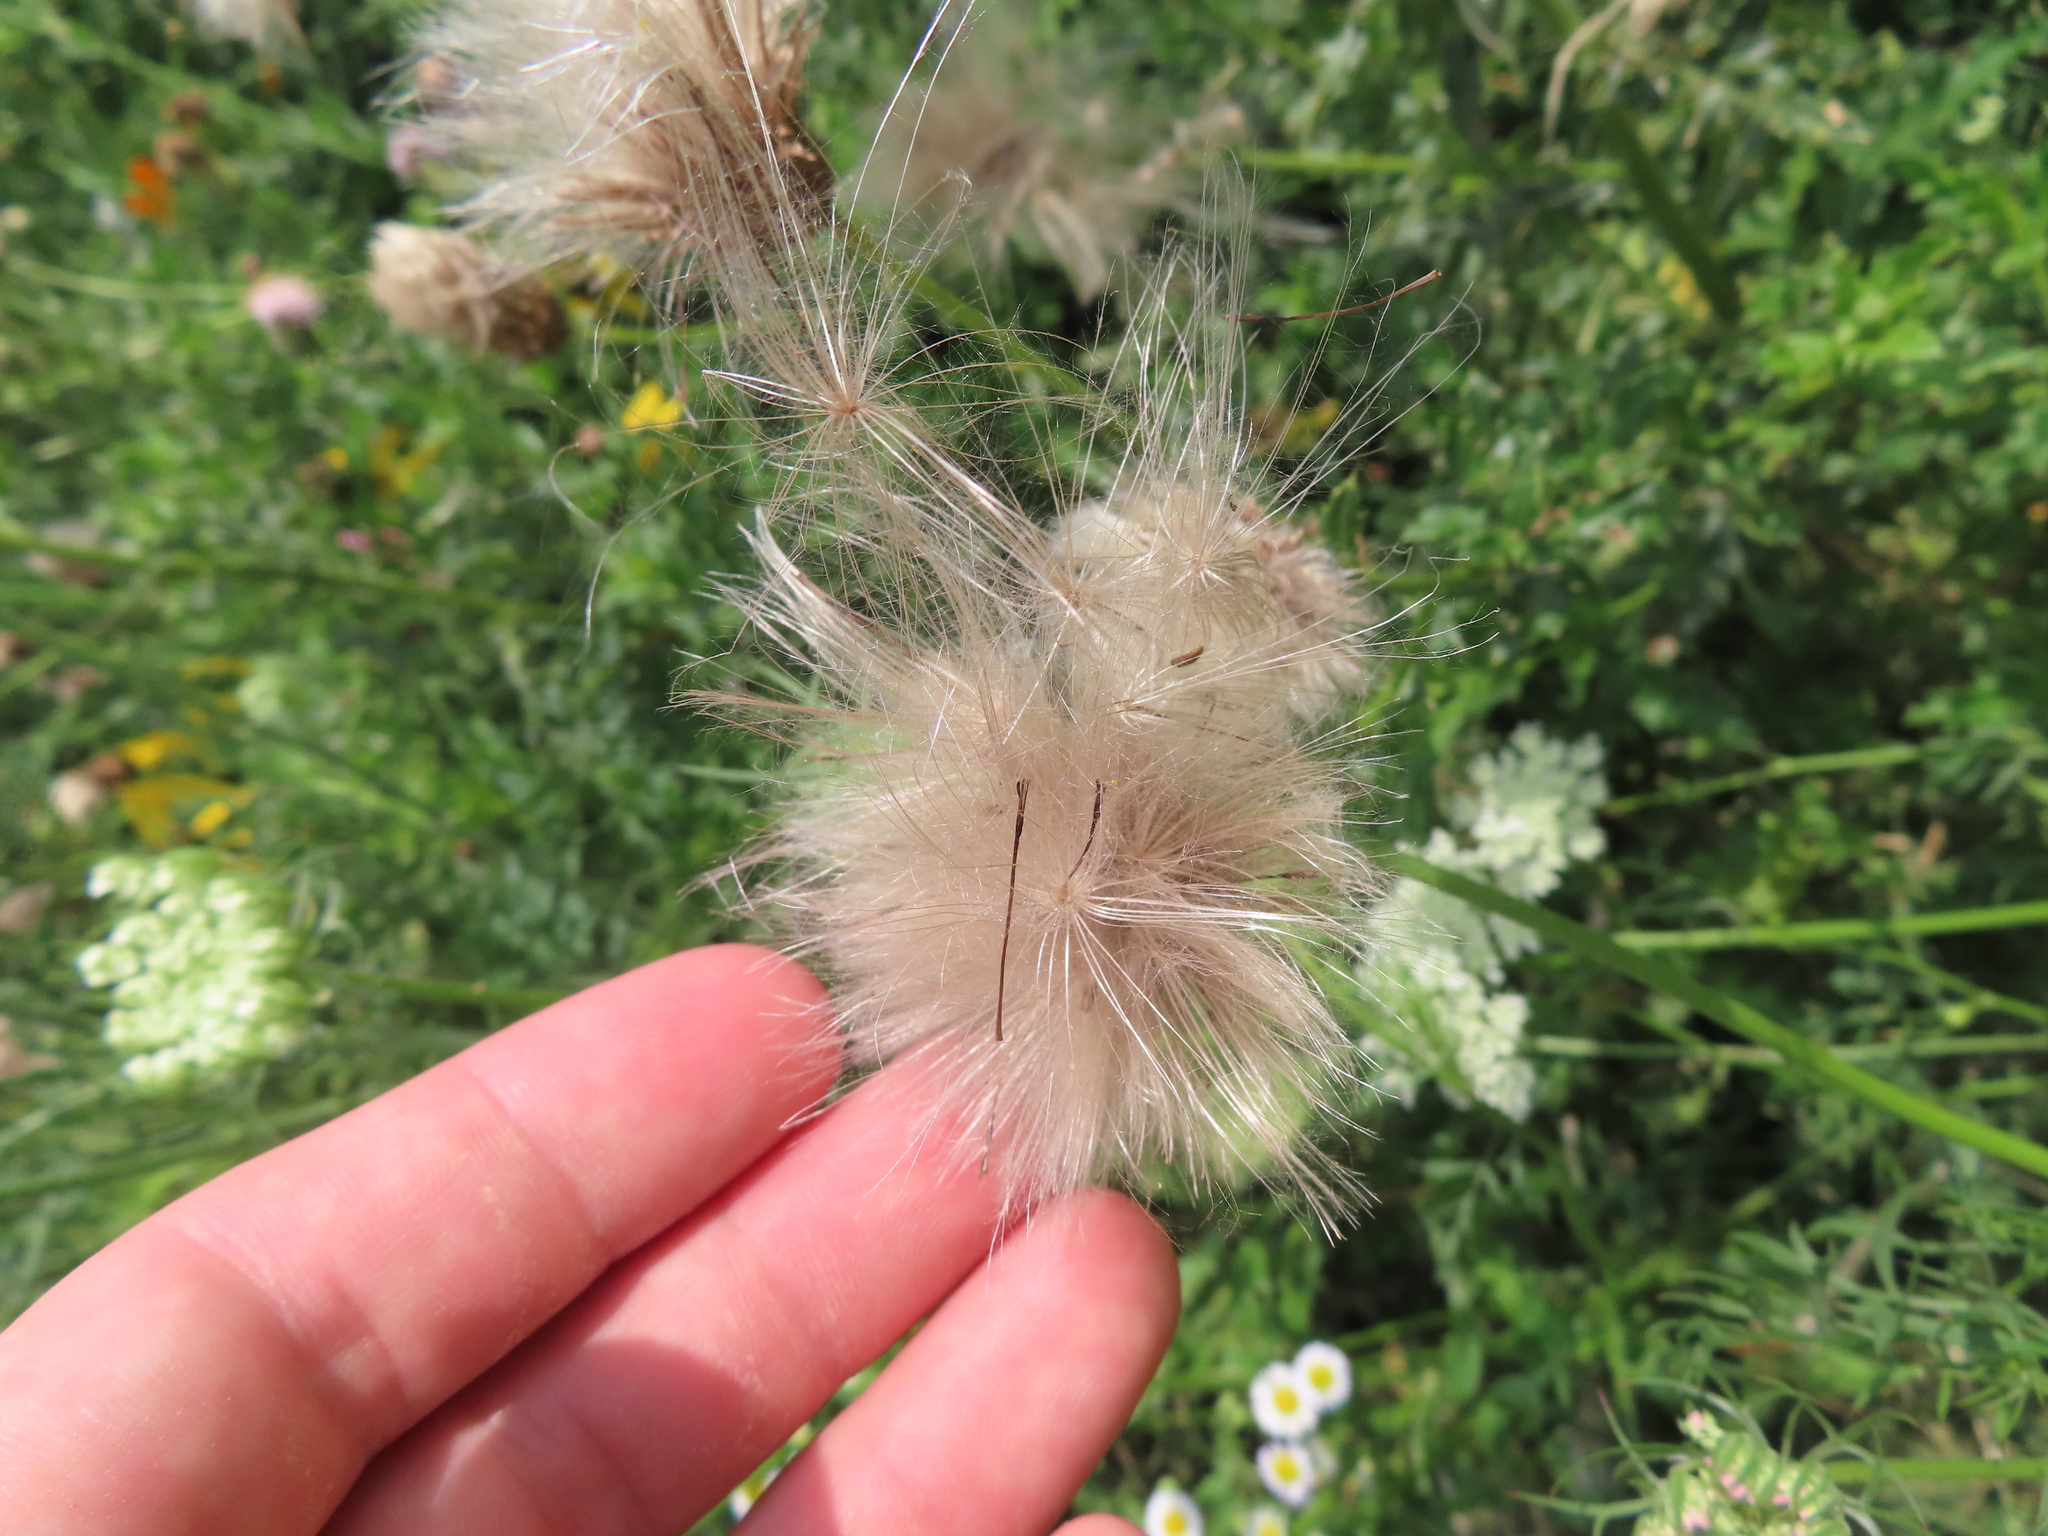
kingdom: Plantae
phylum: Tracheophyta
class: Magnoliopsida
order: Asterales
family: Asteraceae
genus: Cirsium
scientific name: Cirsium arvense
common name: Creeping thistle
